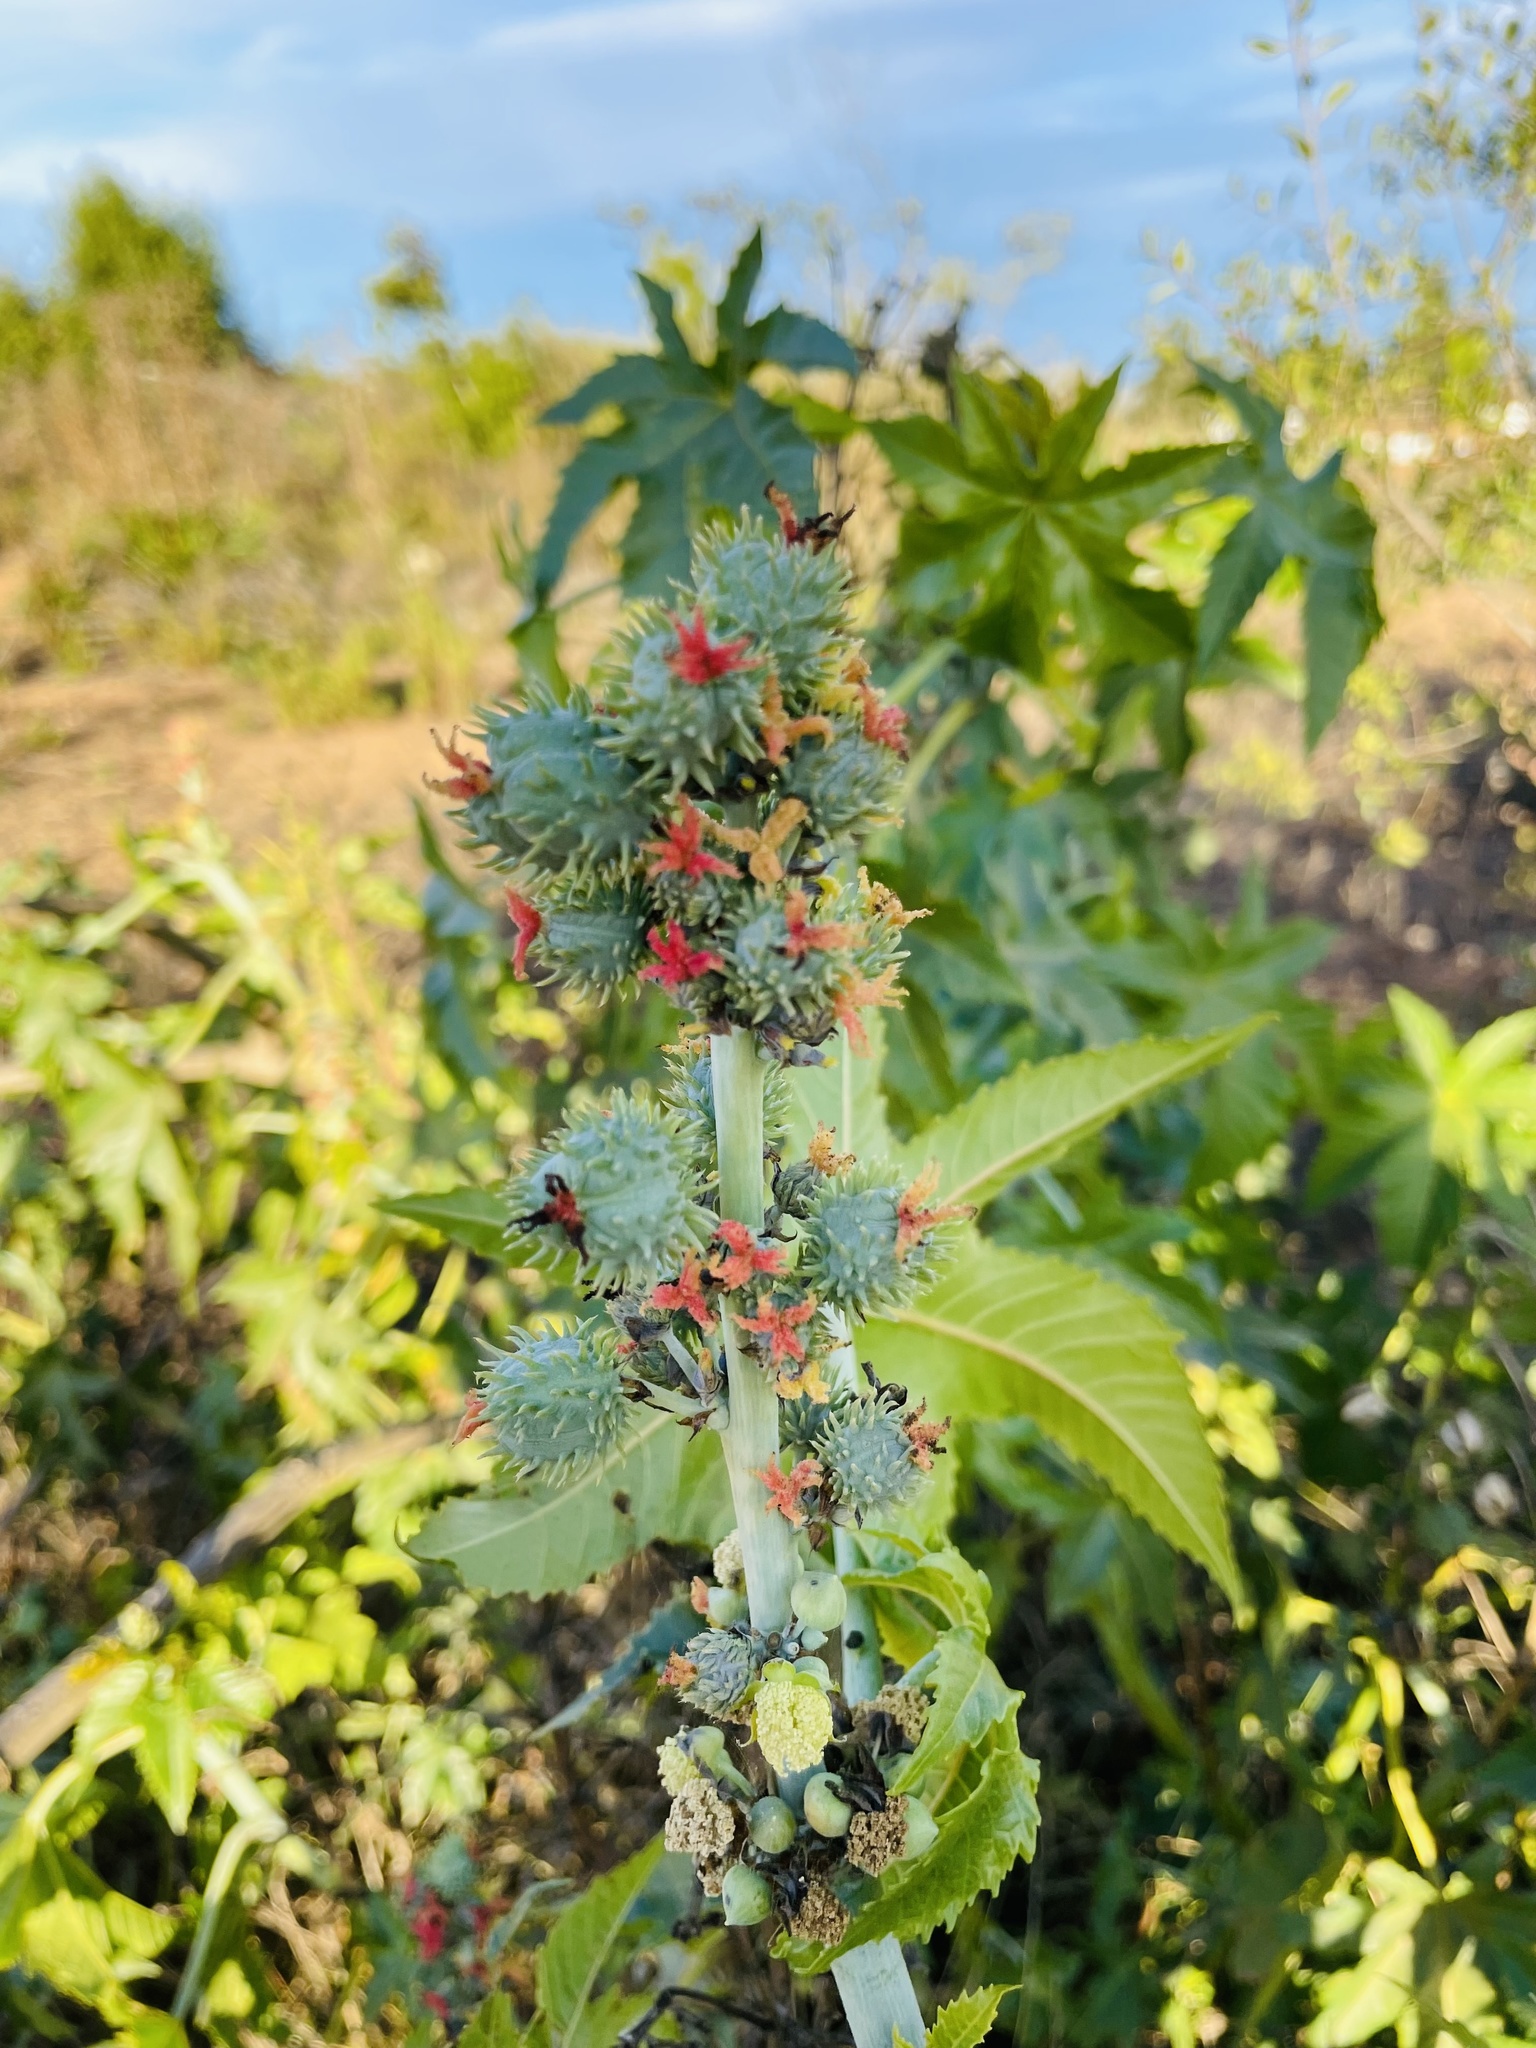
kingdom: Plantae
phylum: Tracheophyta
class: Magnoliopsida
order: Malpighiales
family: Euphorbiaceae
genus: Ricinus
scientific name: Ricinus communis
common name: Castor-oil-plant
